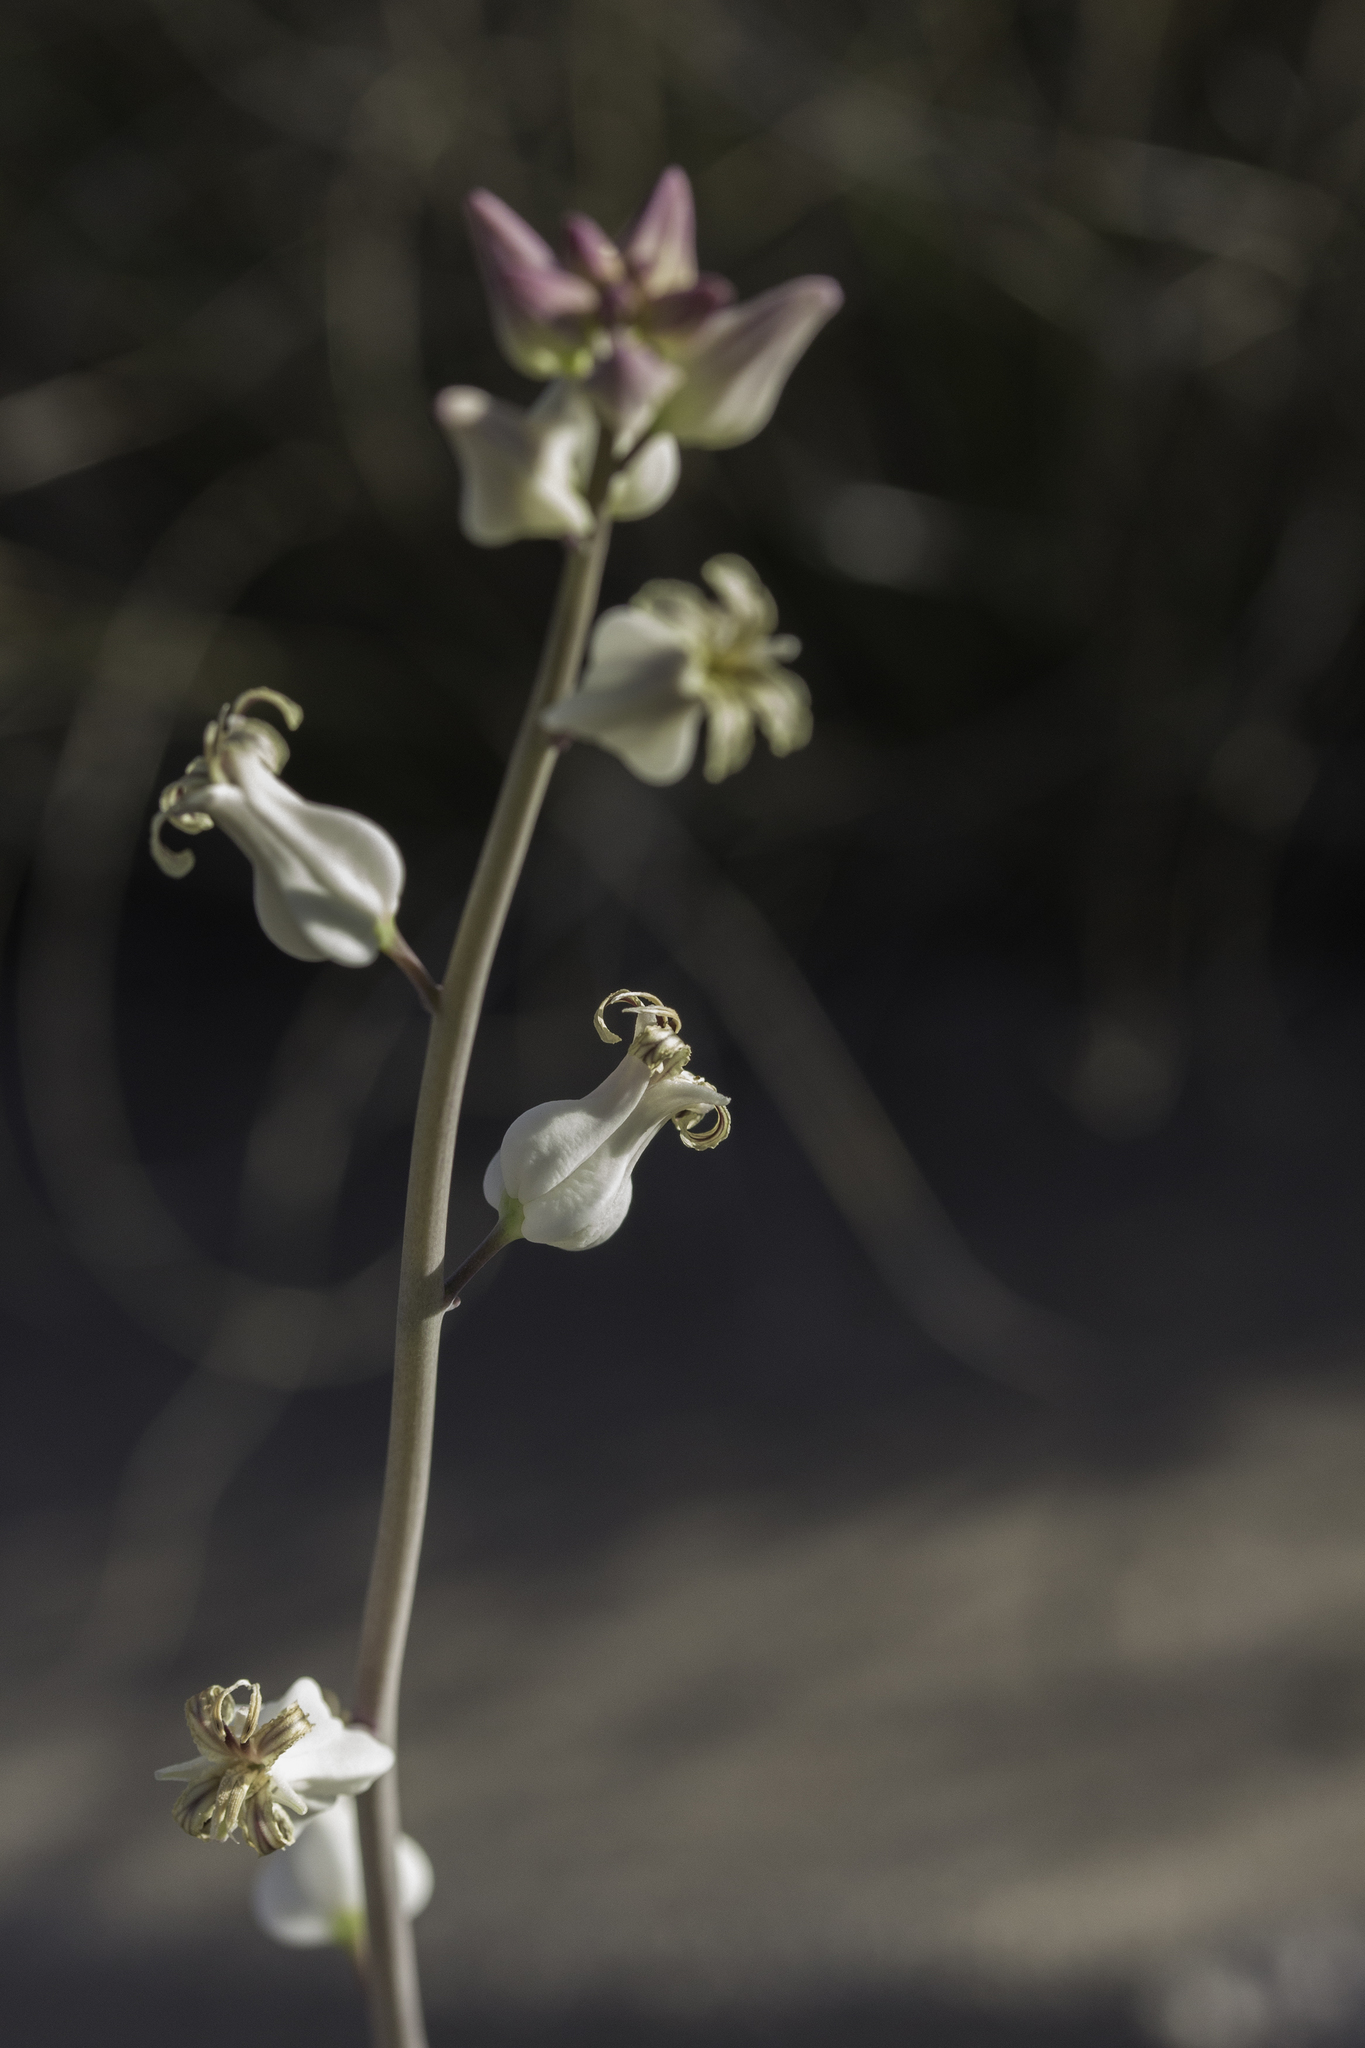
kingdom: Plantae
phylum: Tracheophyta
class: Magnoliopsida
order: Brassicales
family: Brassicaceae
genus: Streptanthus
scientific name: Streptanthus carinatus
